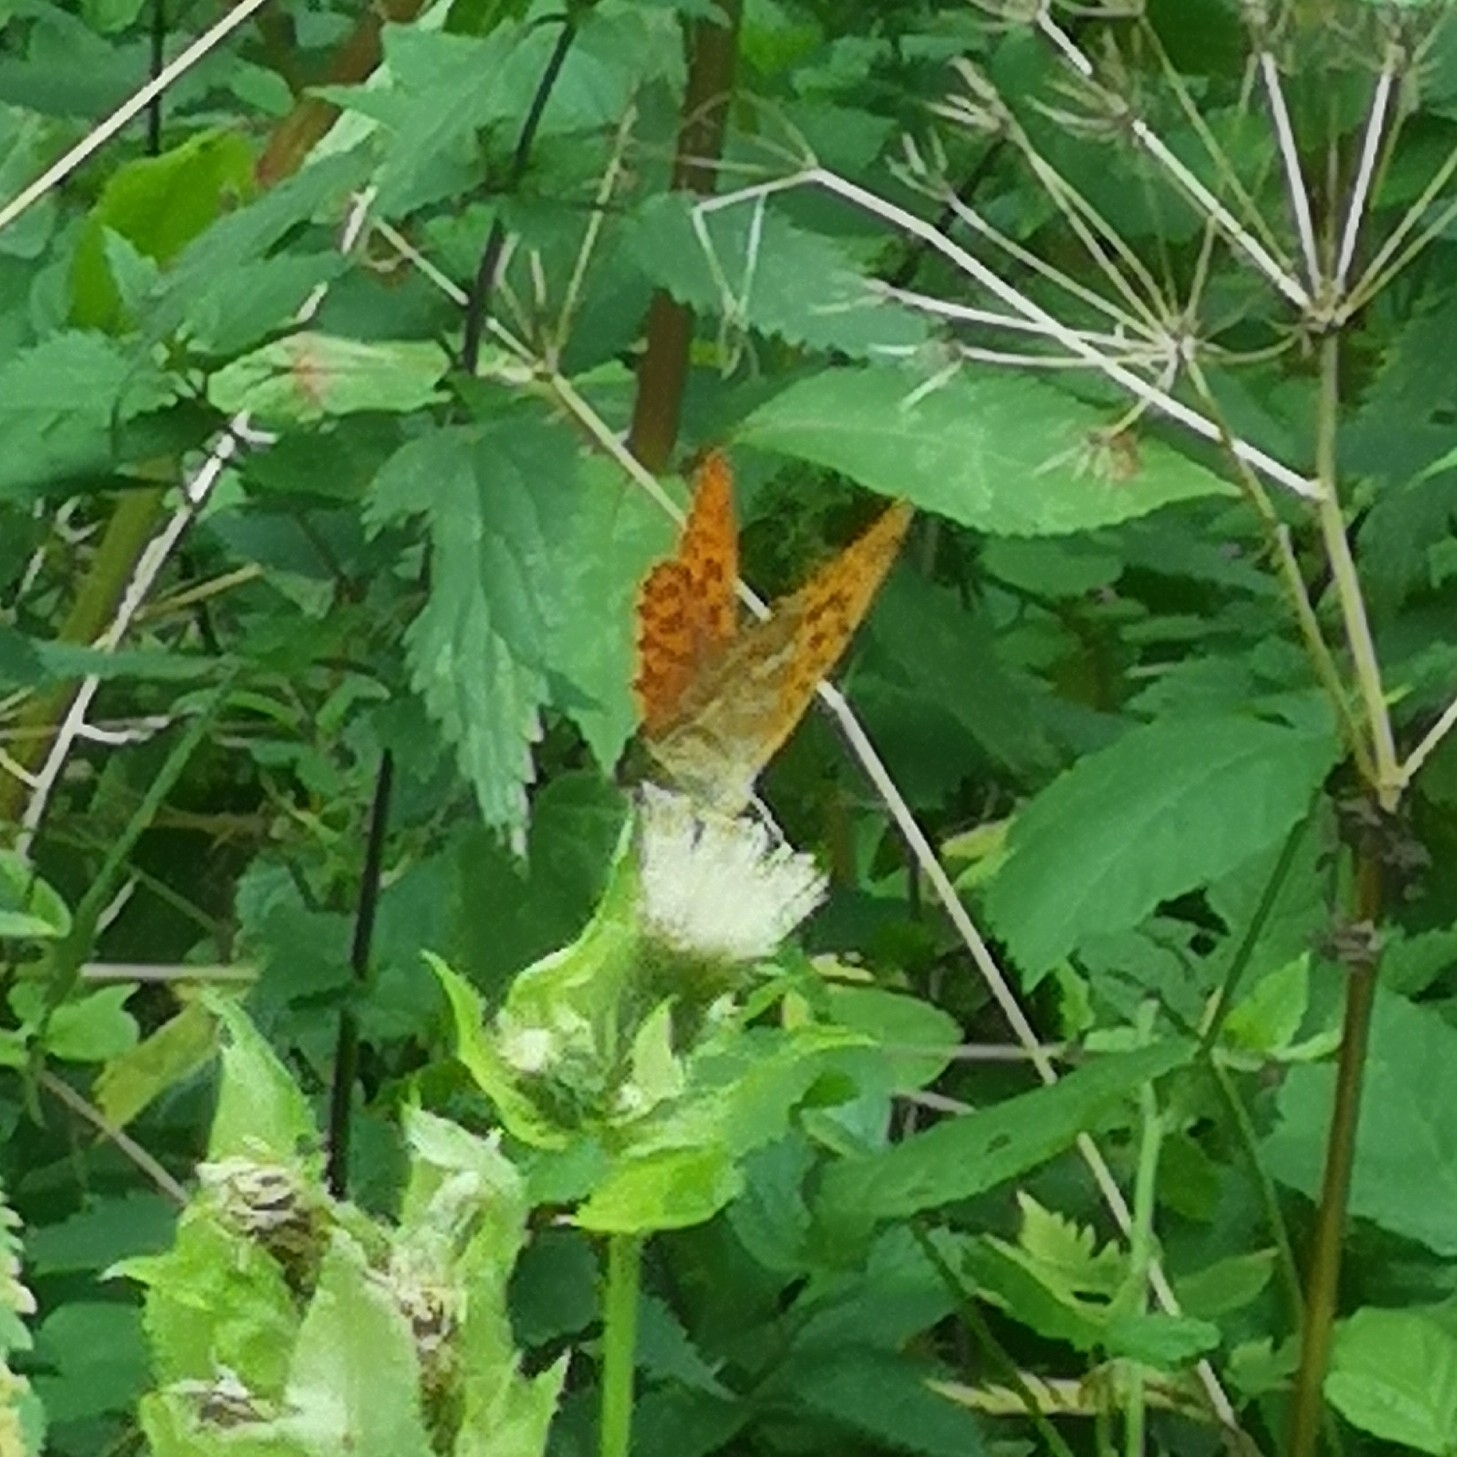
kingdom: Animalia
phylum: Arthropoda
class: Insecta
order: Lepidoptera
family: Nymphalidae
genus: Argynnis
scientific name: Argynnis paphia
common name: Silver-washed fritillary
